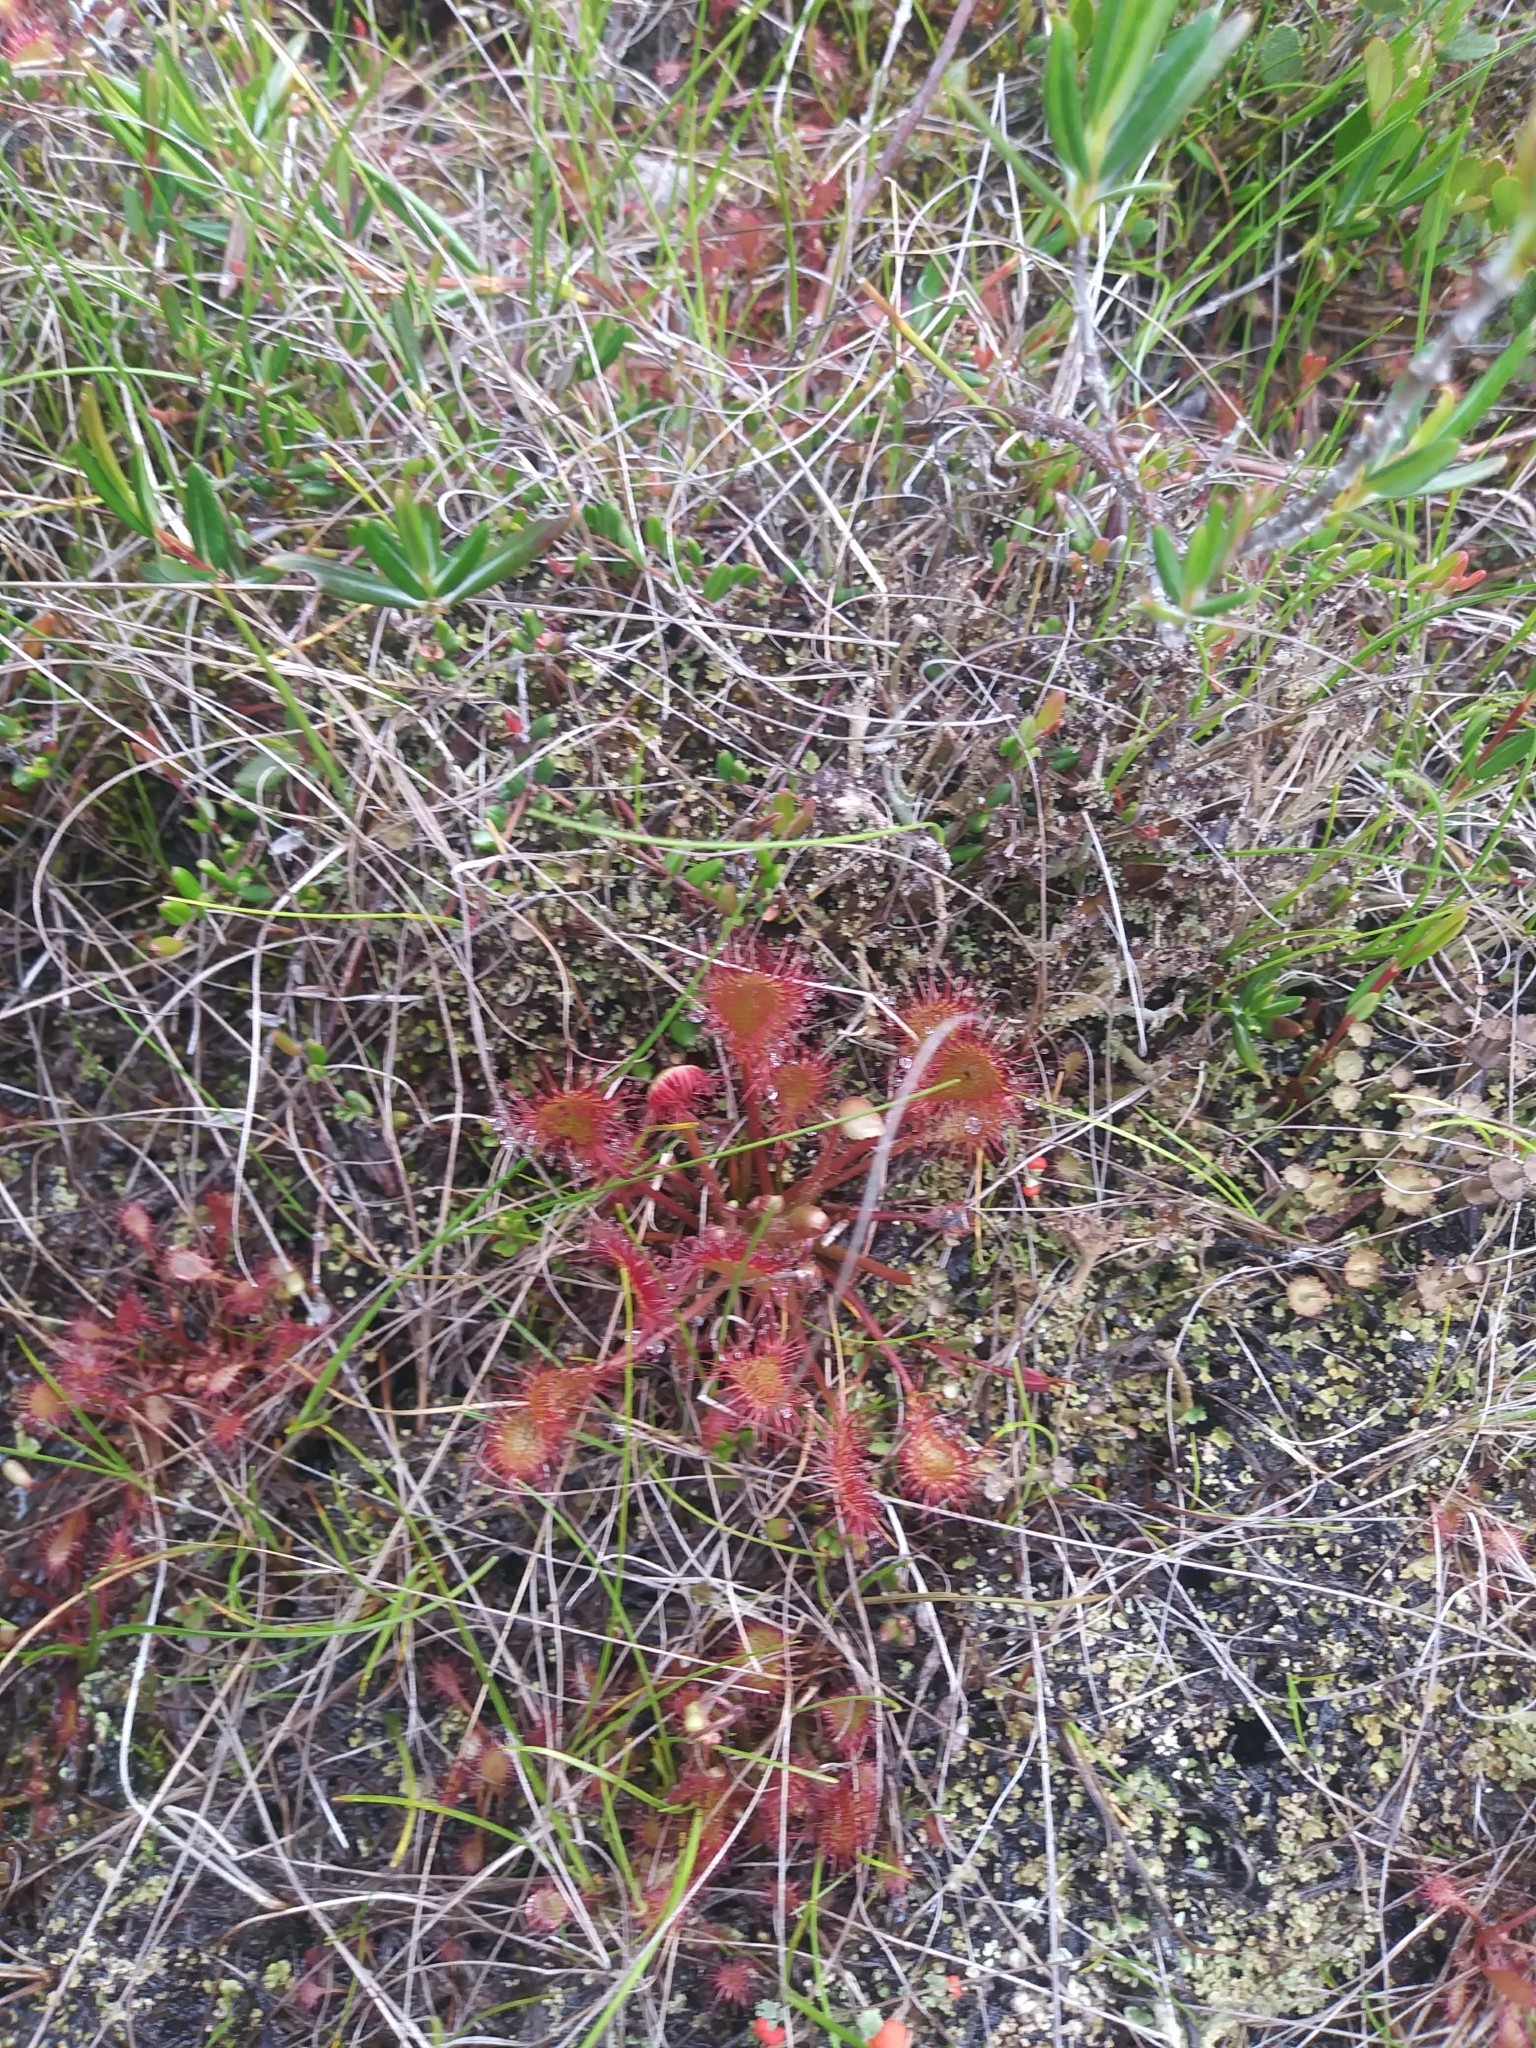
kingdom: Plantae
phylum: Tracheophyta
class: Magnoliopsida
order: Caryophyllales
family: Droseraceae
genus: Drosera
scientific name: Drosera eloisiana
